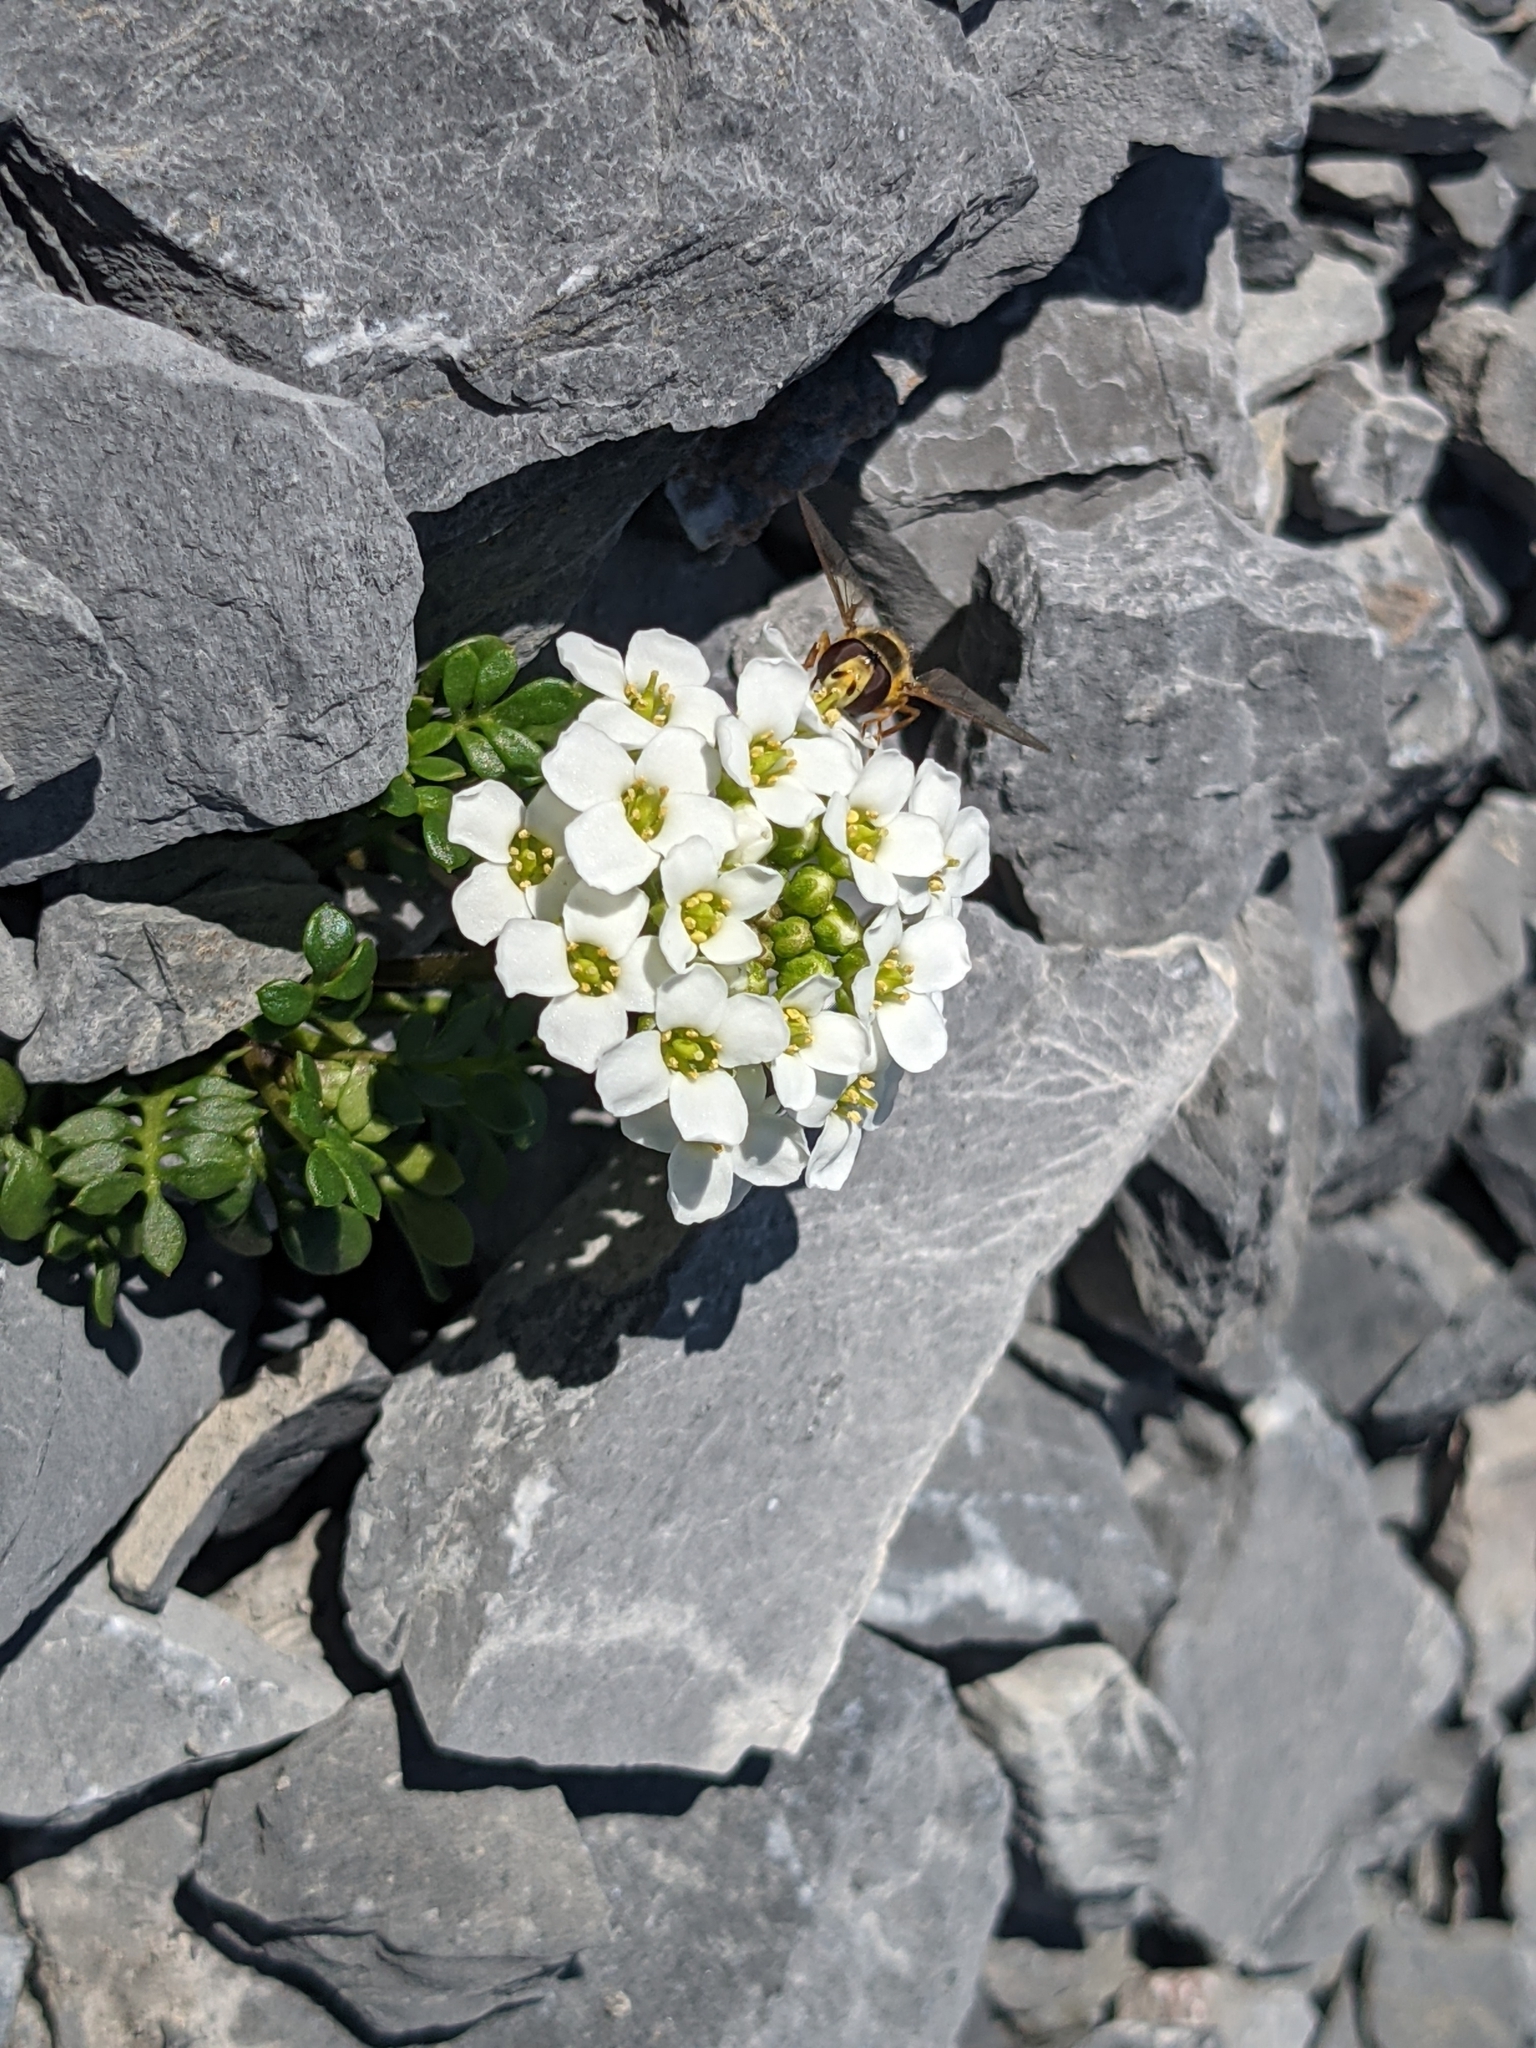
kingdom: Plantae
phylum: Tracheophyta
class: Magnoliopsida
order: Brassicales
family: Brassicaceae
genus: Hornungia
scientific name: Hornungia alpina
